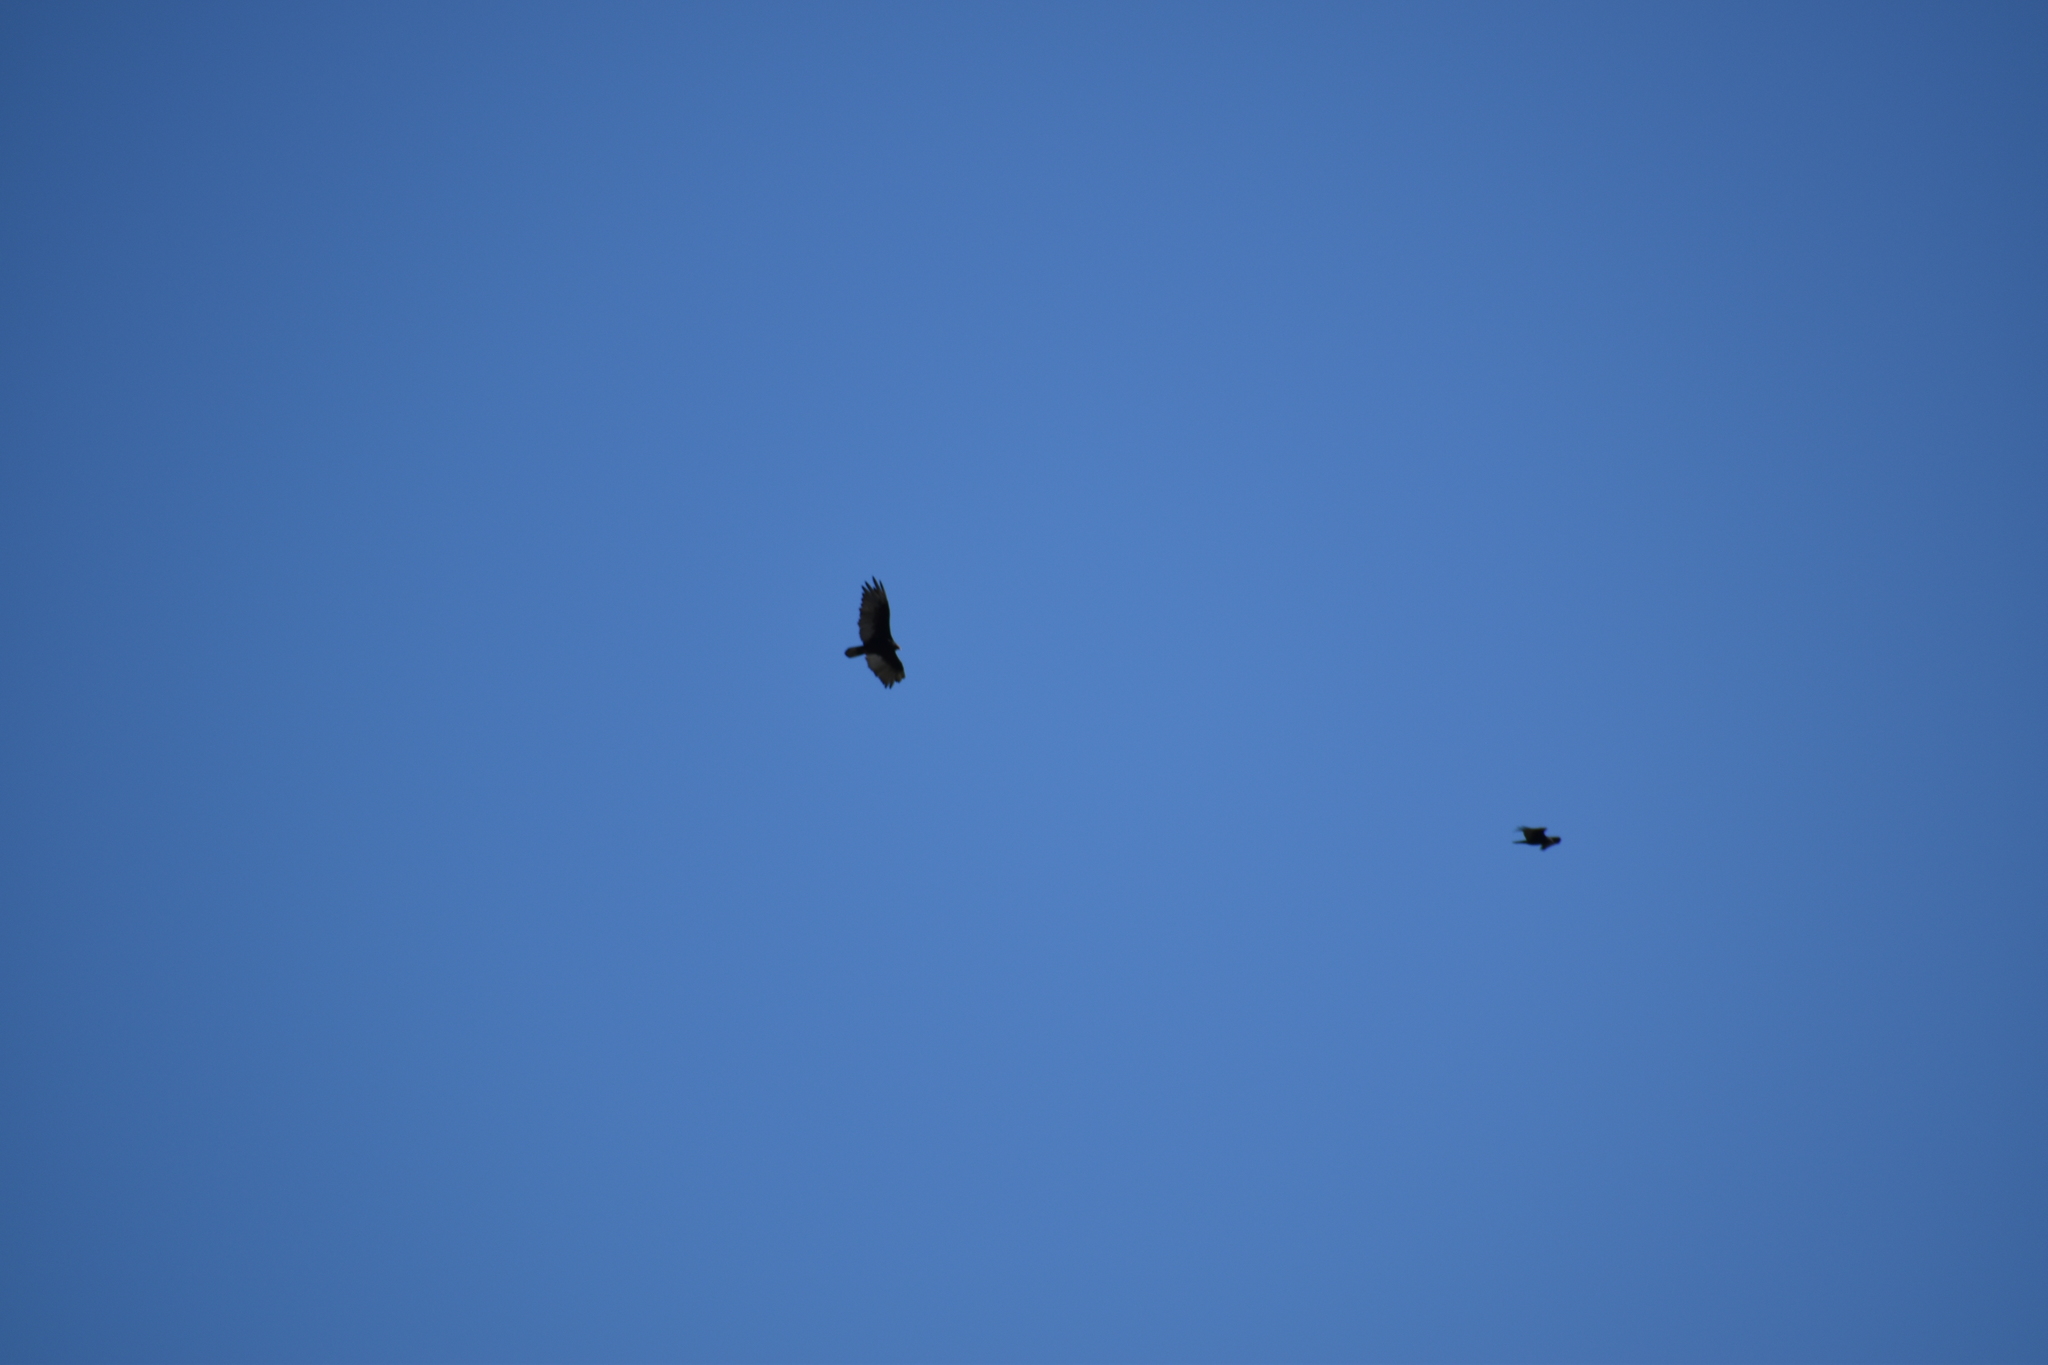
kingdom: Animalia
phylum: Chordata
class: Aves
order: Accipitriformes
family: Cathartidae
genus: Cathartes
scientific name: Cathartes aura
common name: Turkey vulture
